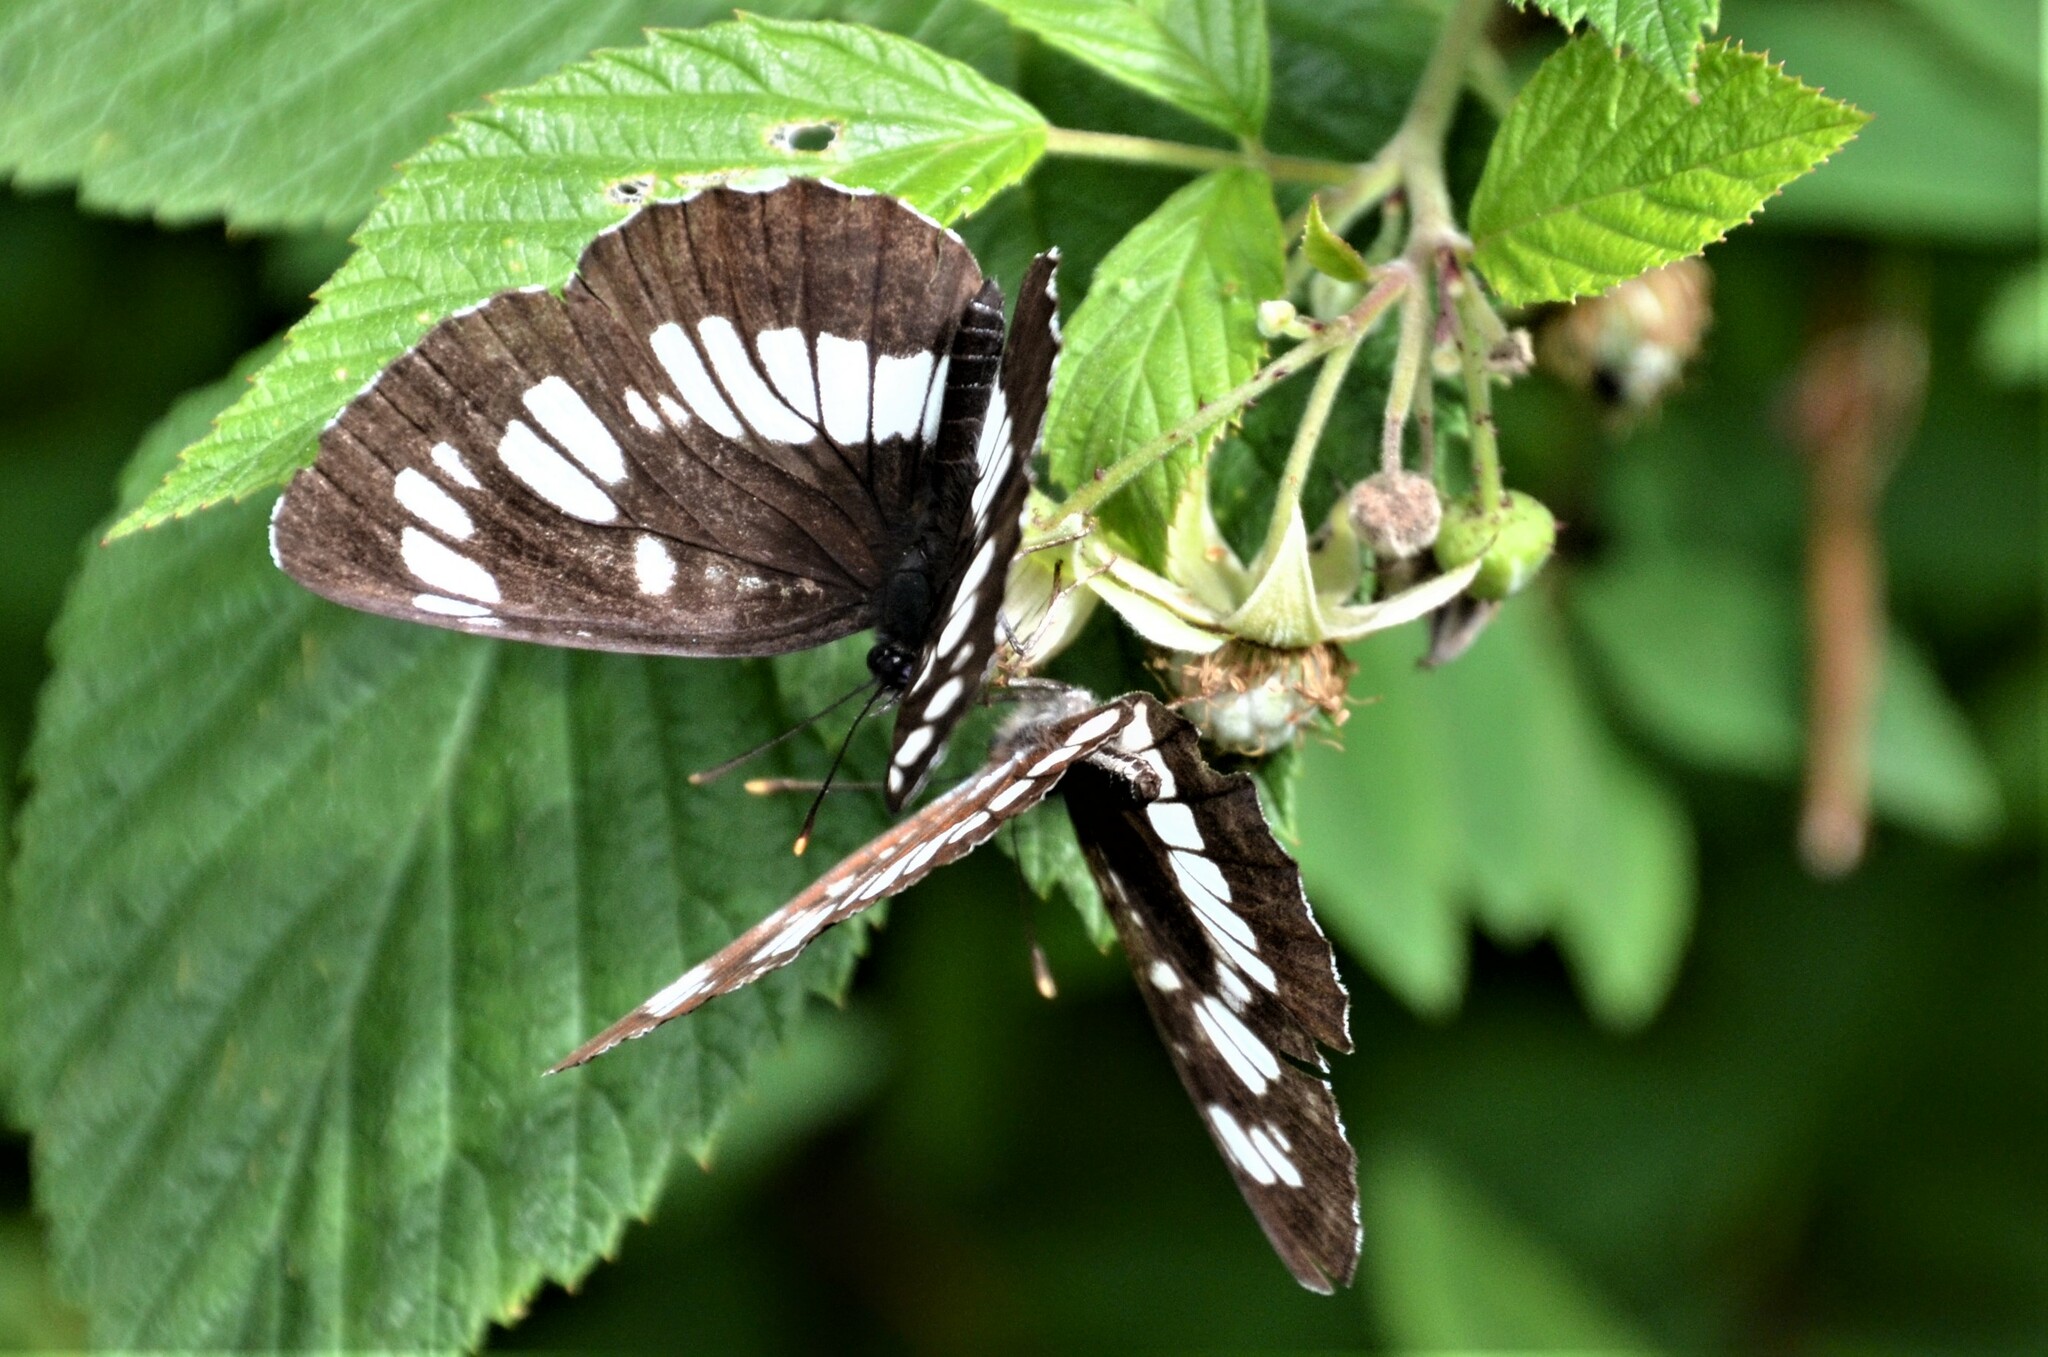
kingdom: Animalia
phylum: Arthropoda
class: Insecta
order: Lepidoptera
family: Nymphalidae
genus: Neptis
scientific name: Neptis rivularis
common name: Hungarian glider
